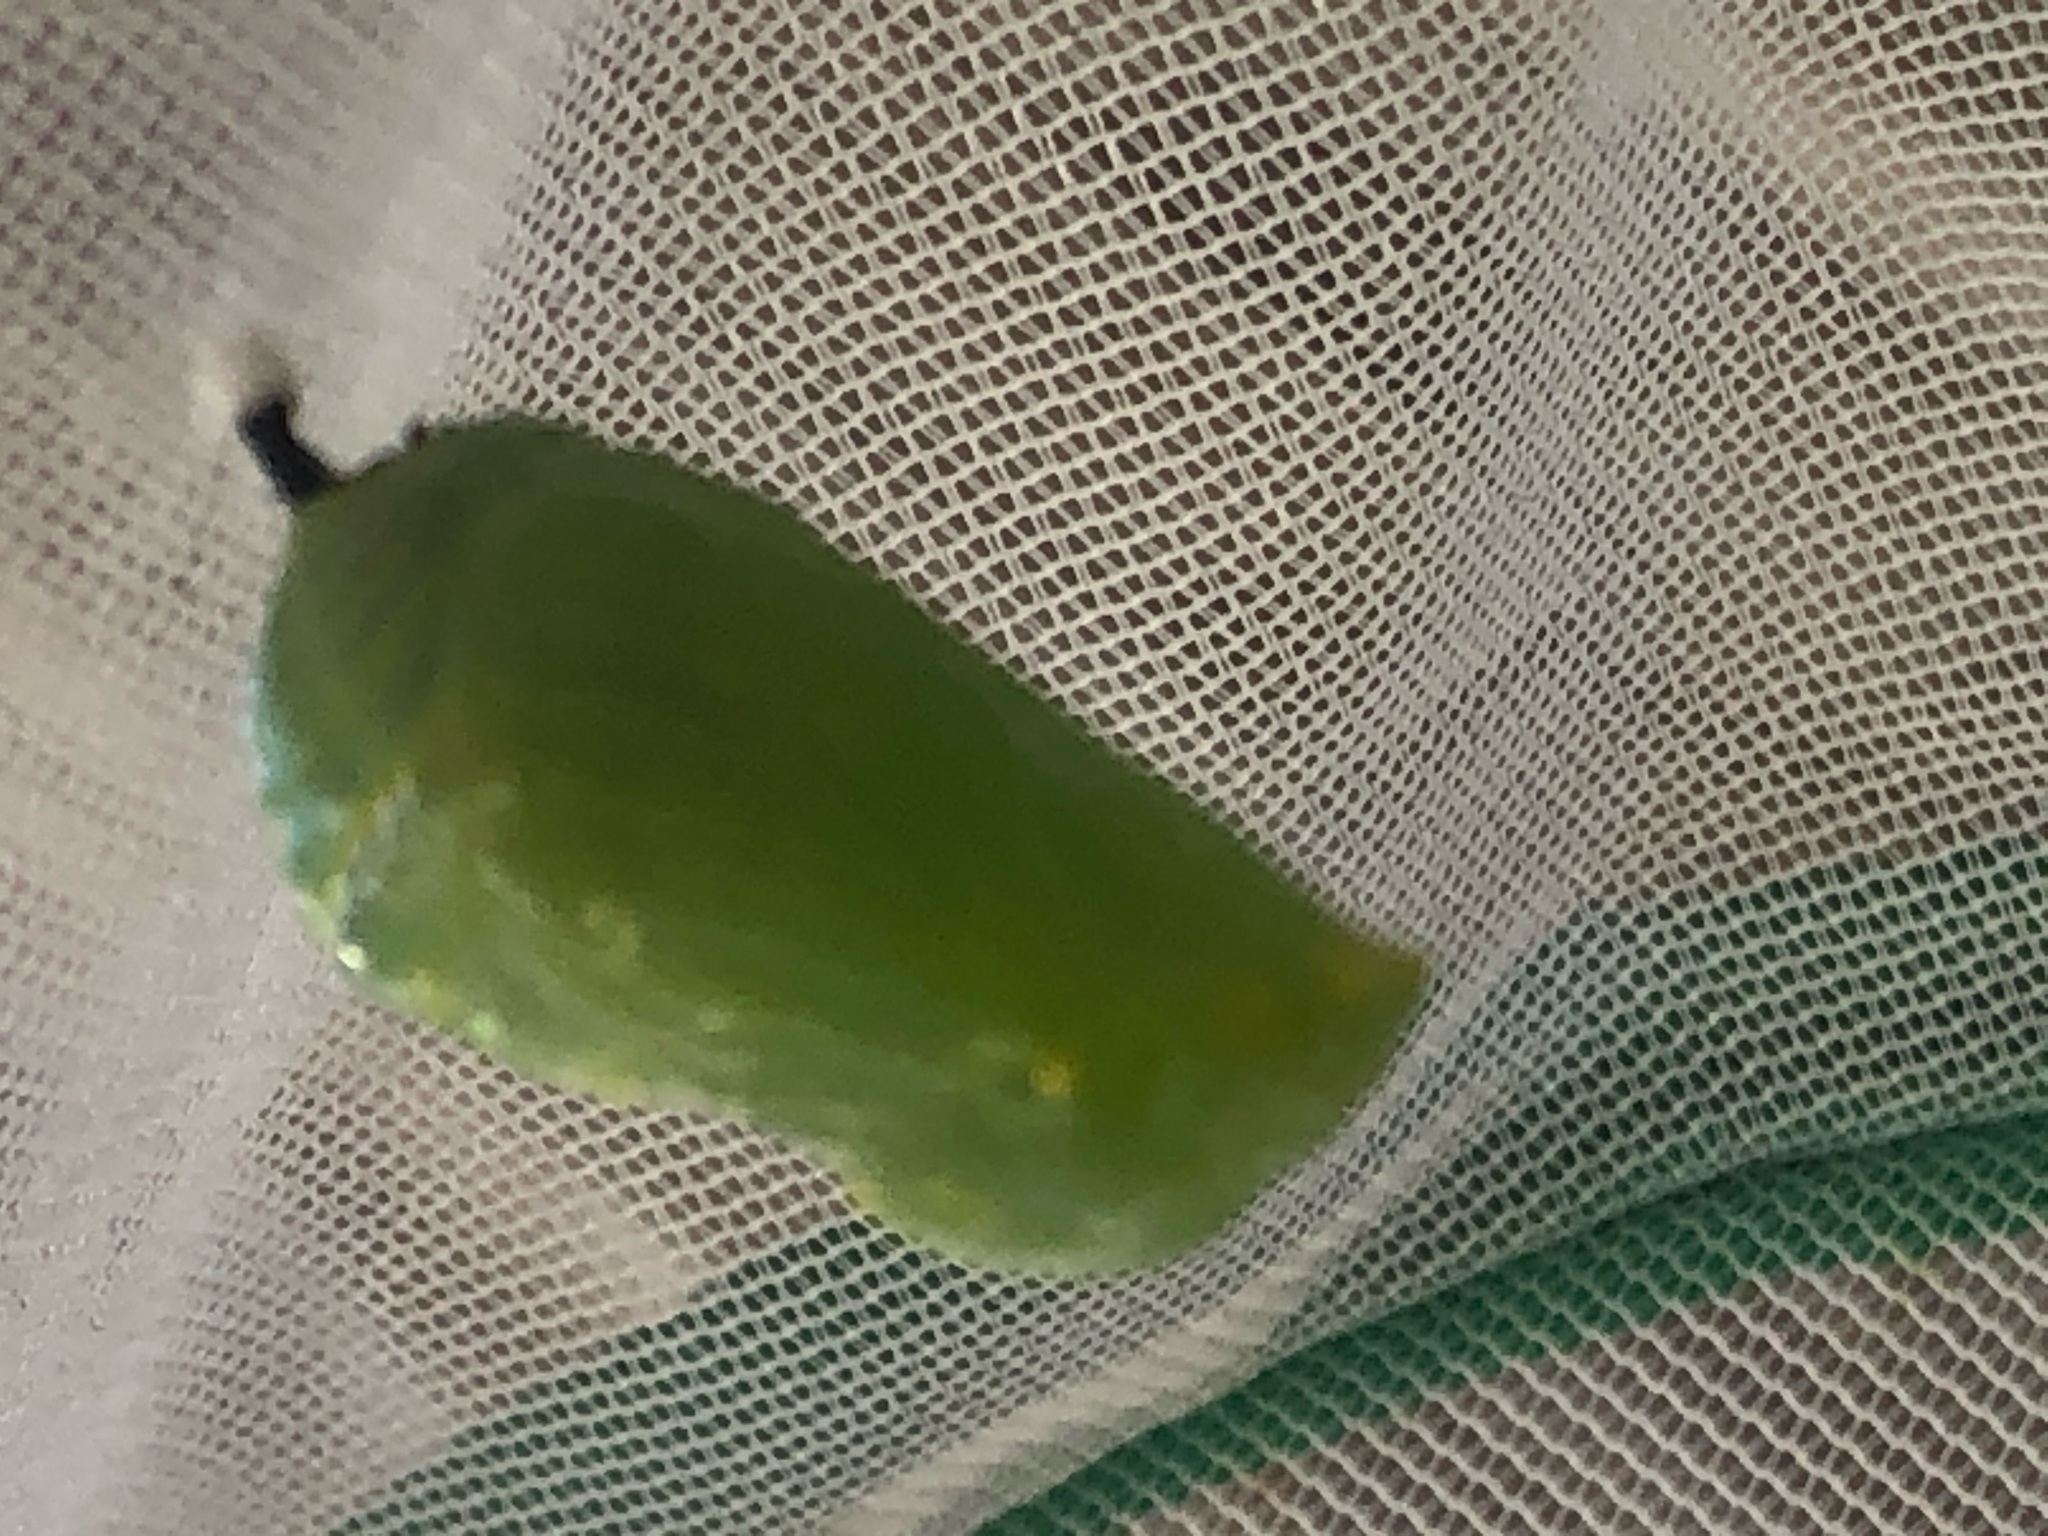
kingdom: Animalia
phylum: Arthropoda
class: Insecta
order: Lepidoptera
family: Nymphalidae
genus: Danaus
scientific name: Danaus plexippus
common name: Monarch
